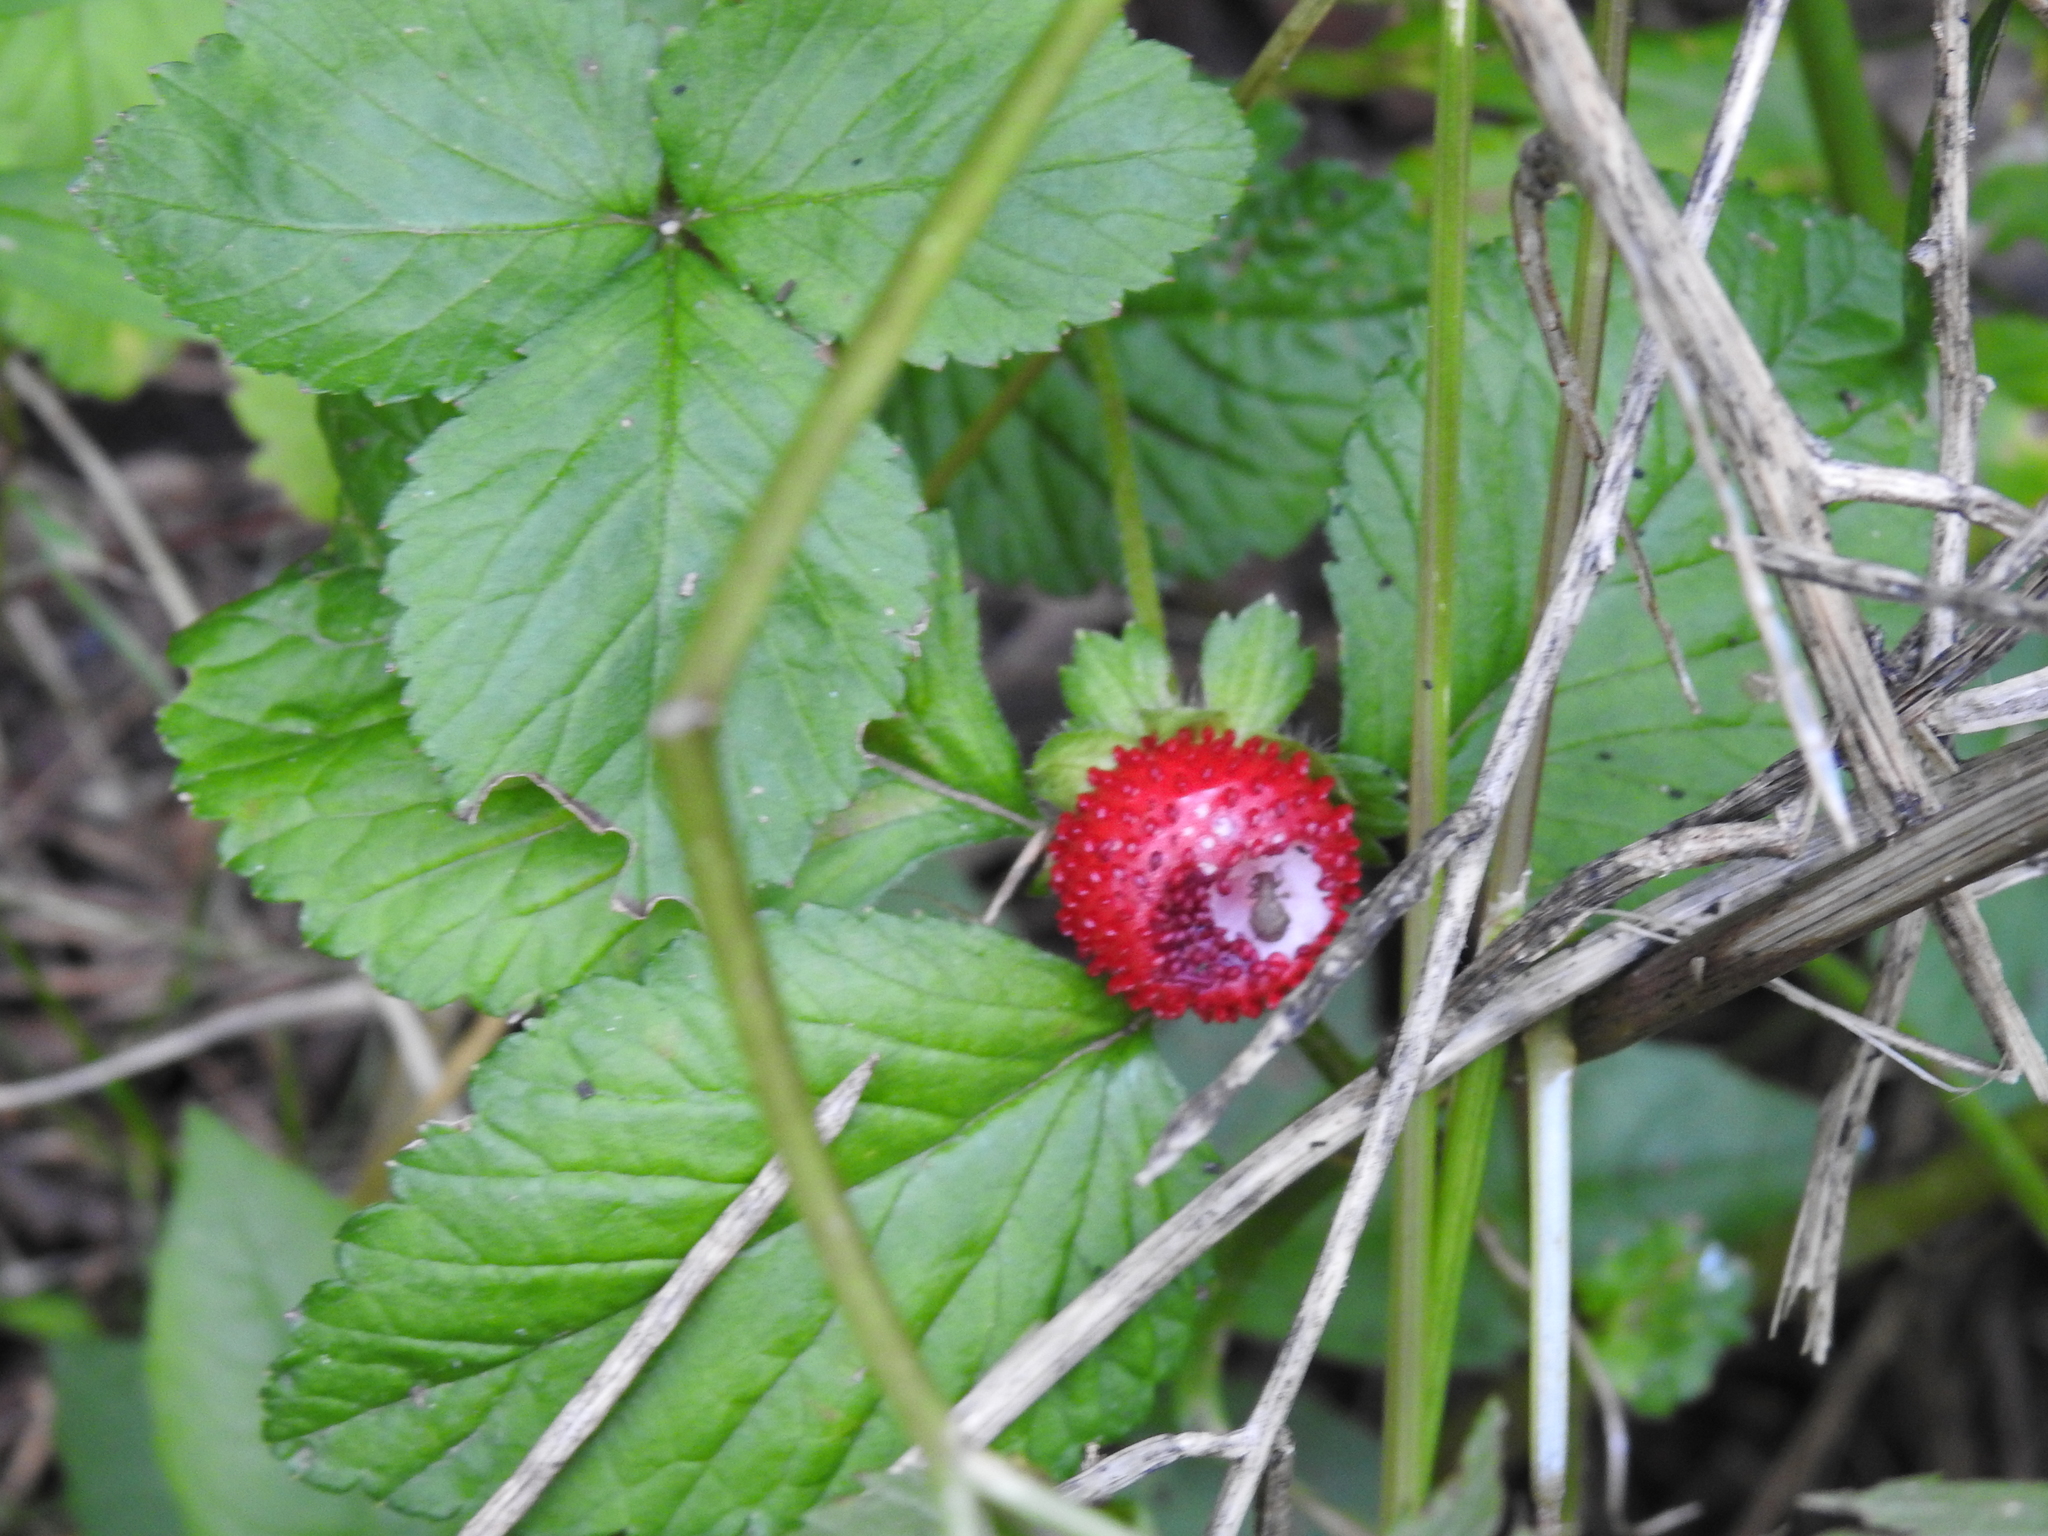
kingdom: Plantae
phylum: Tracheophyta
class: Magnoliopsida
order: Rosales
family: Rosaceae
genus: Potentilla
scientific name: Potentilla indica
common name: Yellow-flowered strawberry
